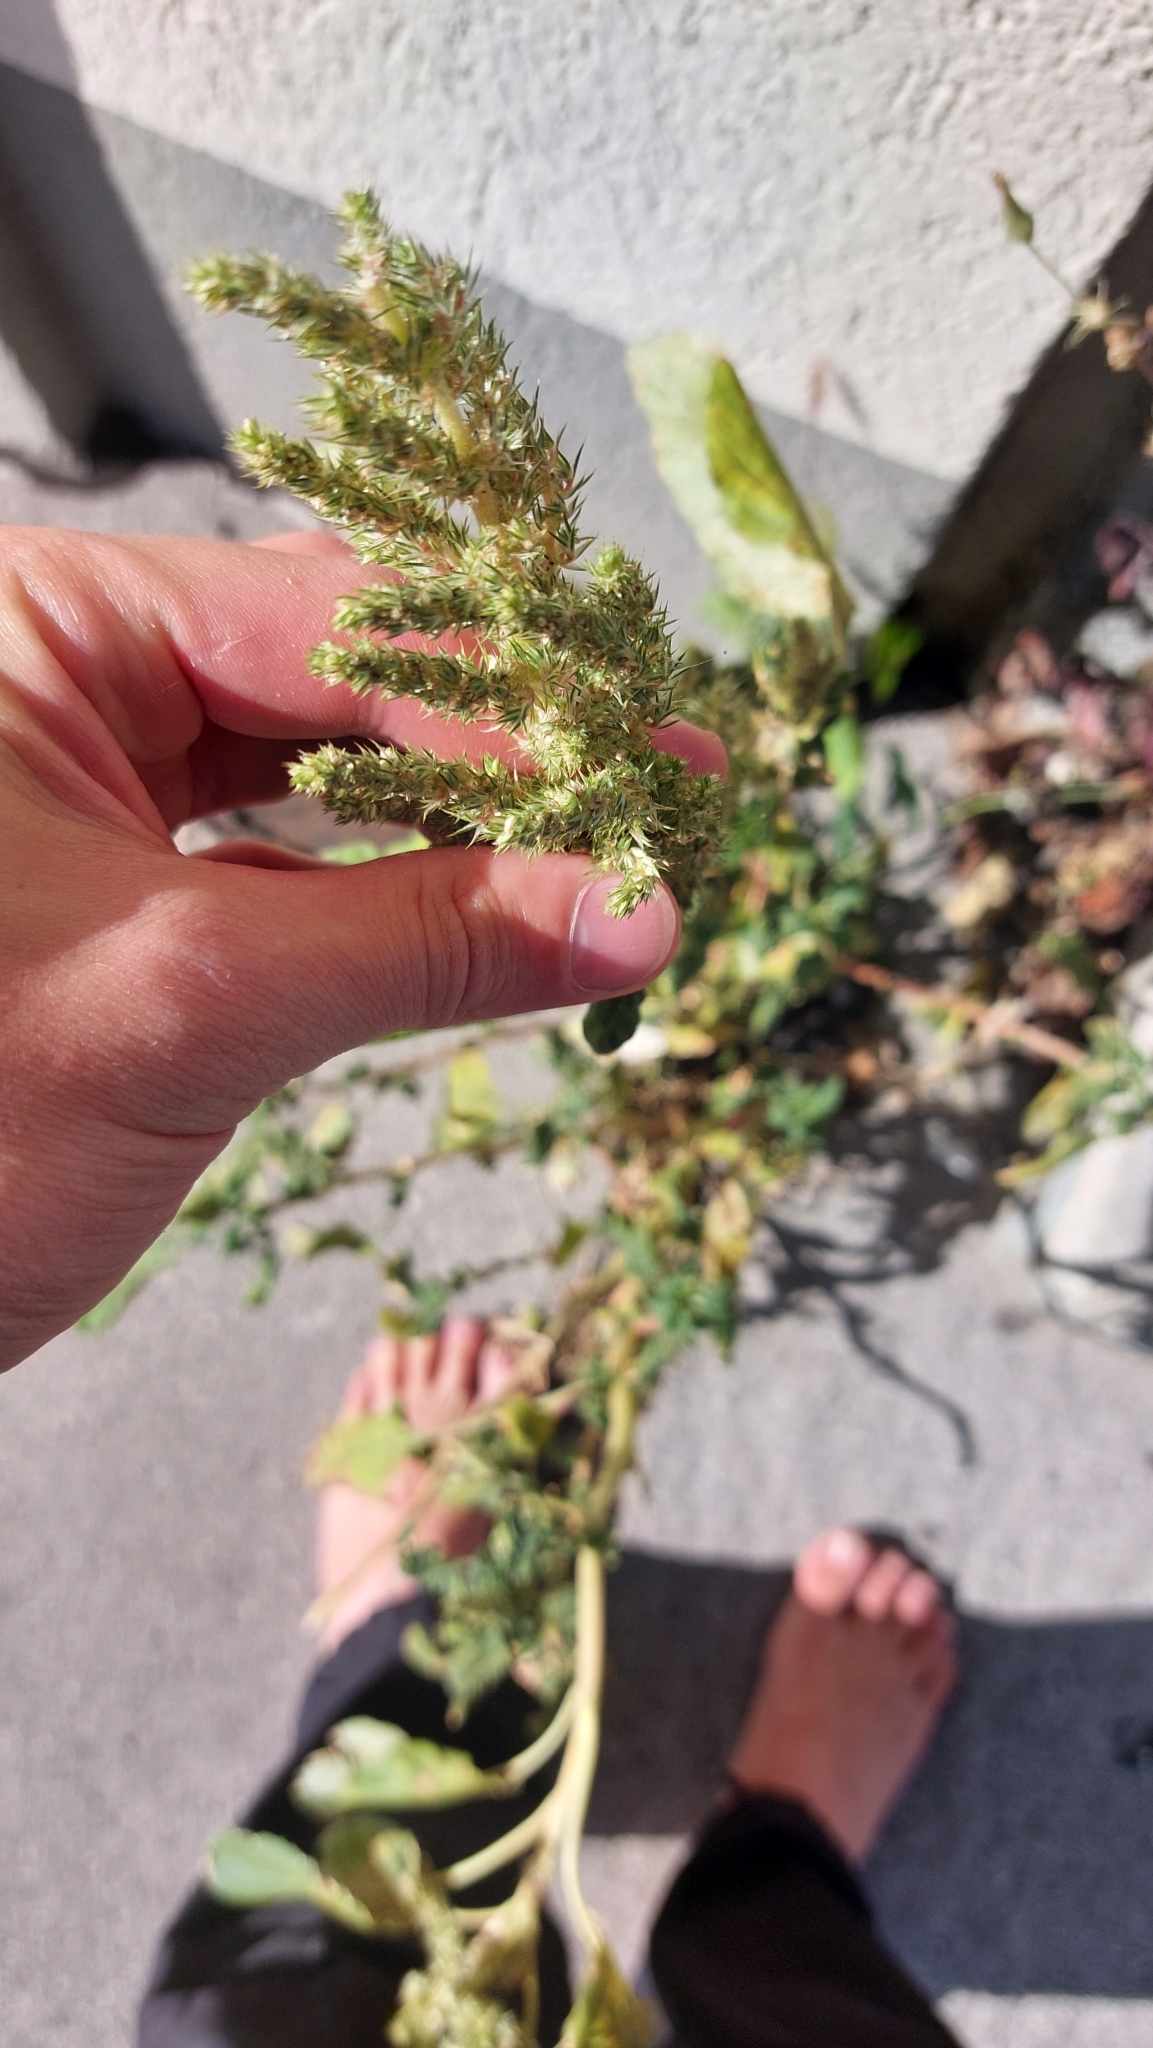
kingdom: Plantae
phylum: Tracheophyta
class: Magnoliopsida
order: Caryophyllales
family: Amaranthaceae
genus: Amaranthus
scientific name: Amaranthus retroflexus
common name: Redroot amaranth
